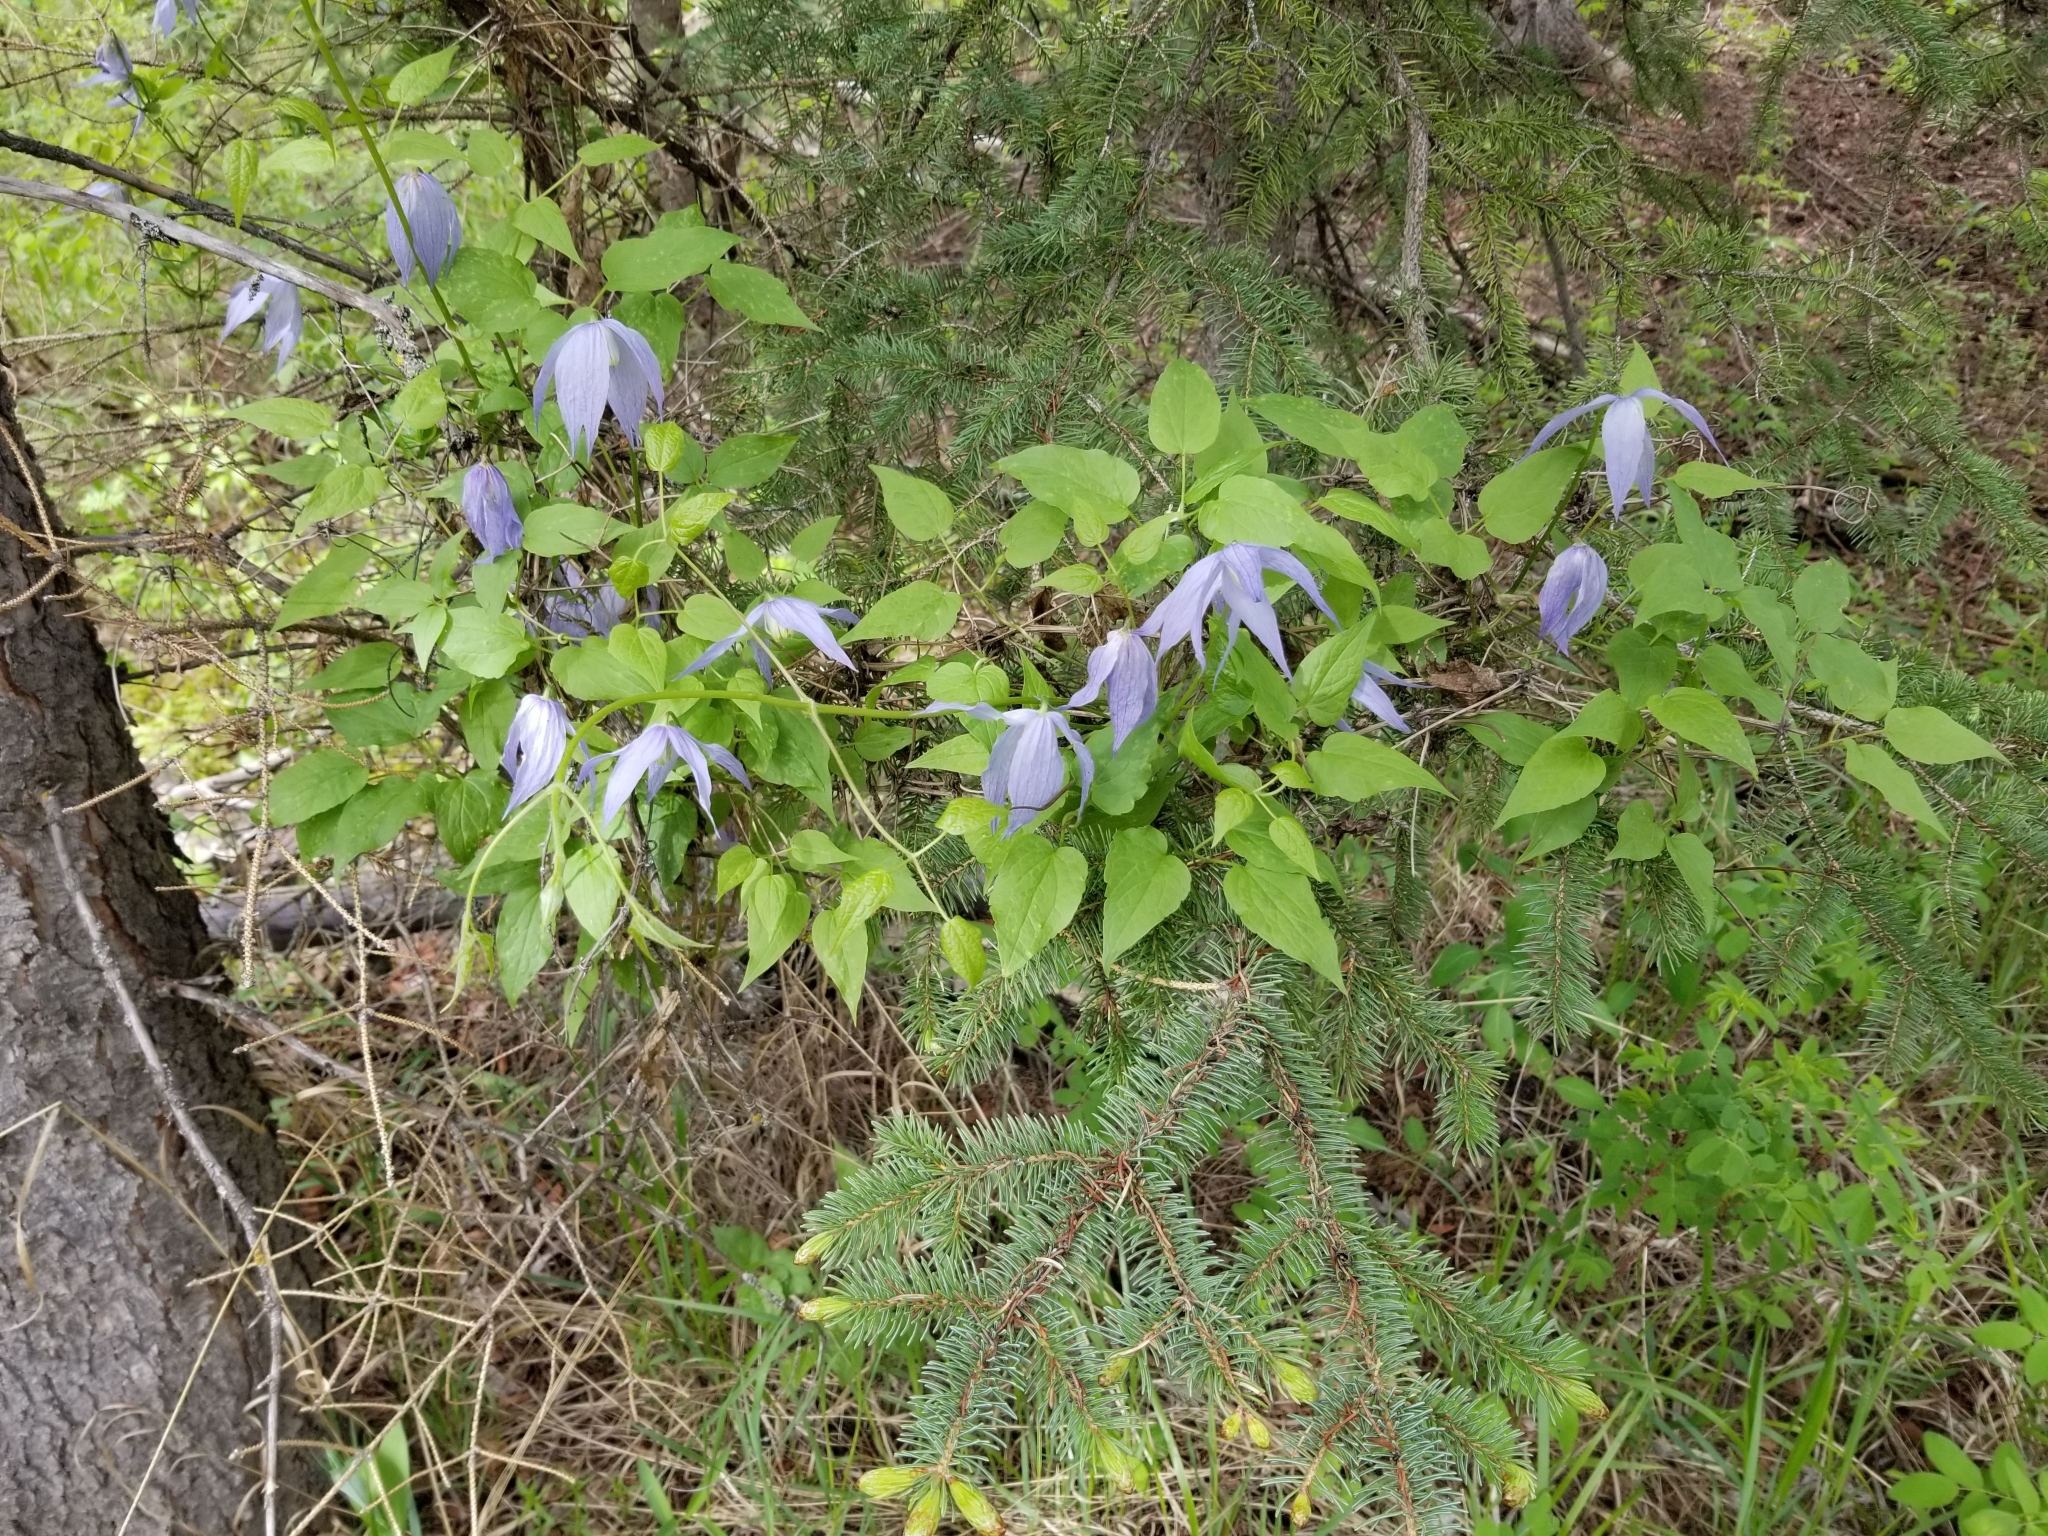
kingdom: Plantae
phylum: Tracheophyta
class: Magnoliopsida
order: Ranunculales
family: Ranunculaceae
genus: Clematis
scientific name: Clematis occidentalis
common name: Purple clematis
